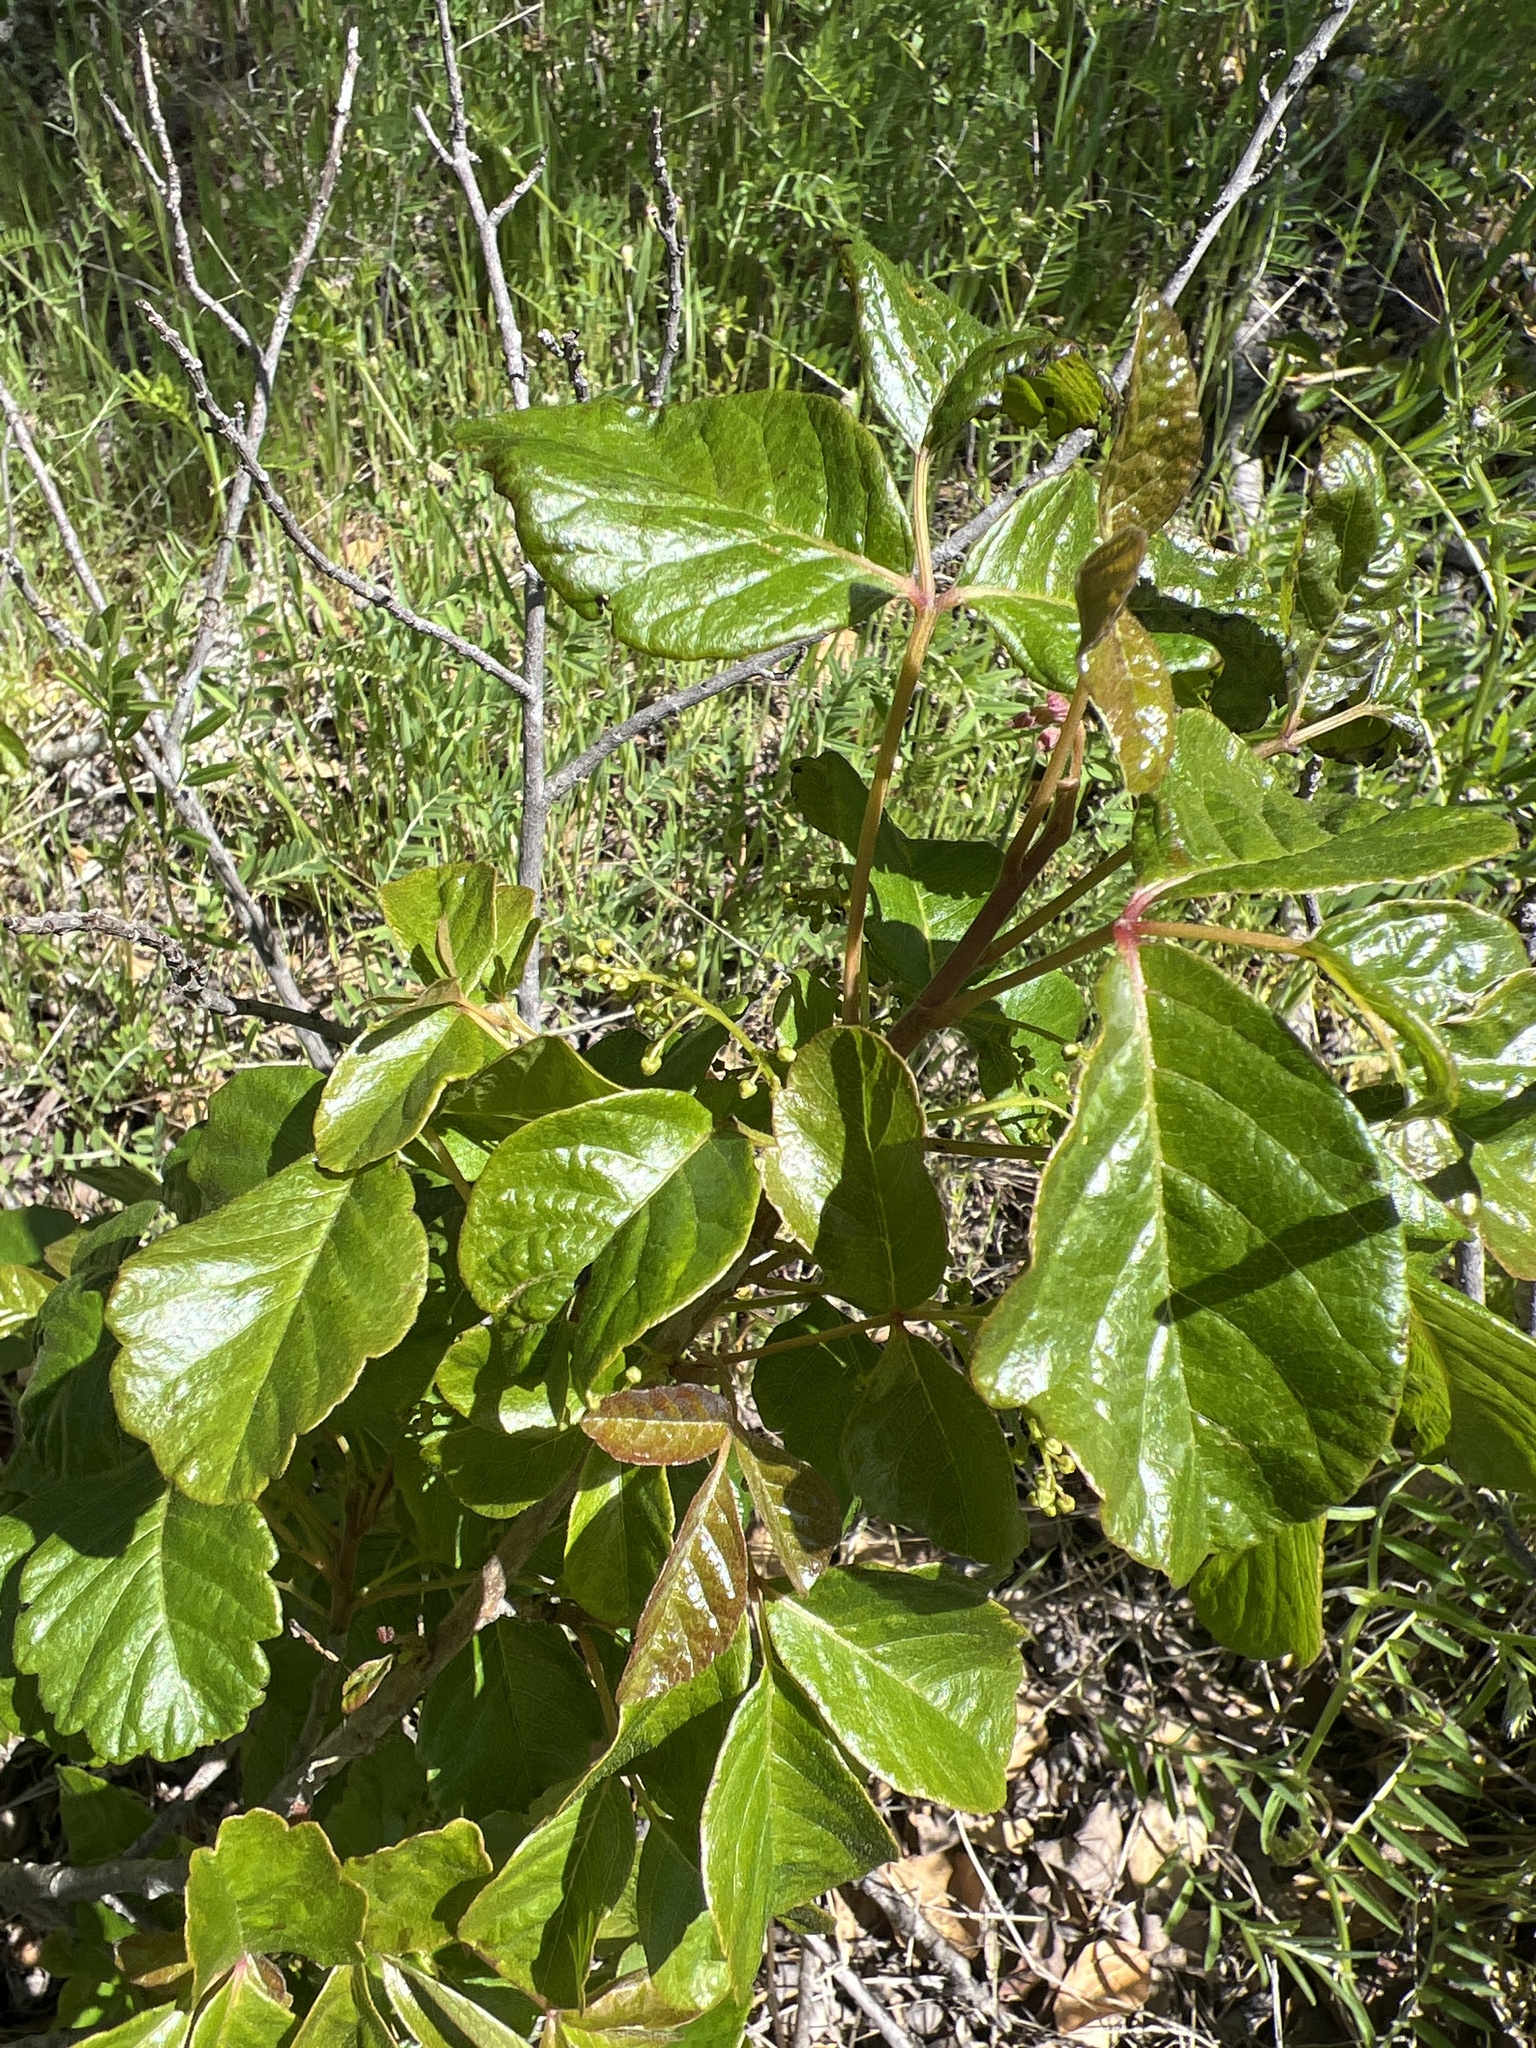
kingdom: Plantae
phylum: Tracheophyta
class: Magnoliopsida
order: Sapindales
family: Anacardiaceae
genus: Toxicodendron
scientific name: Toxicodendron diversilobum
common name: Pacific poison-oak
